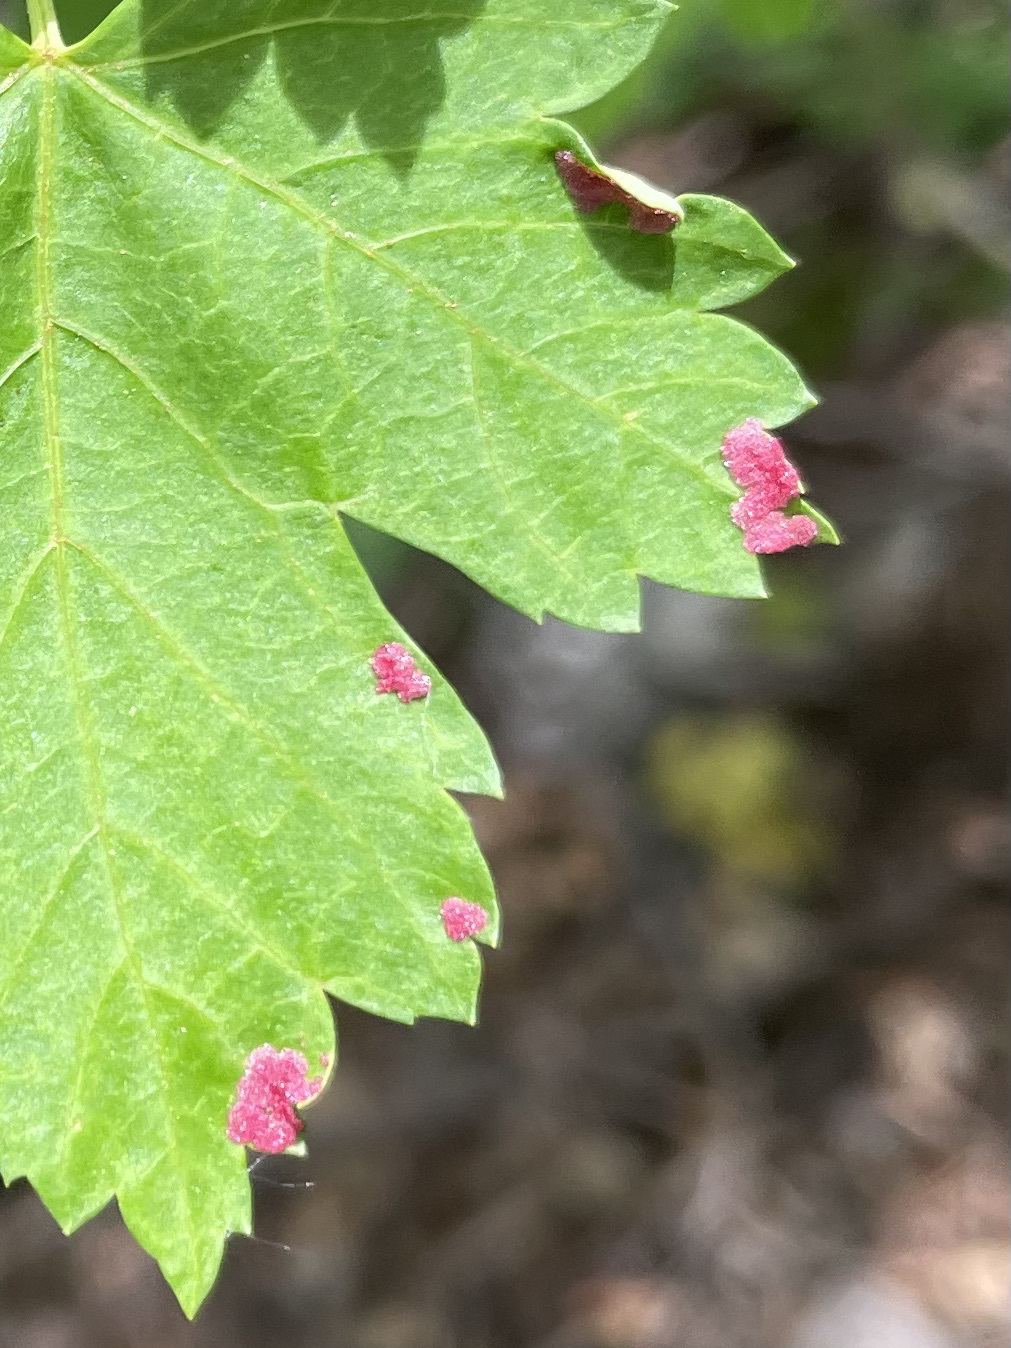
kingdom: Animalia
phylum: Arthropoda
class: Arachnida
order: Trombidiformes
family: Eriophyidae
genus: Aceria
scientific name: Aceria
